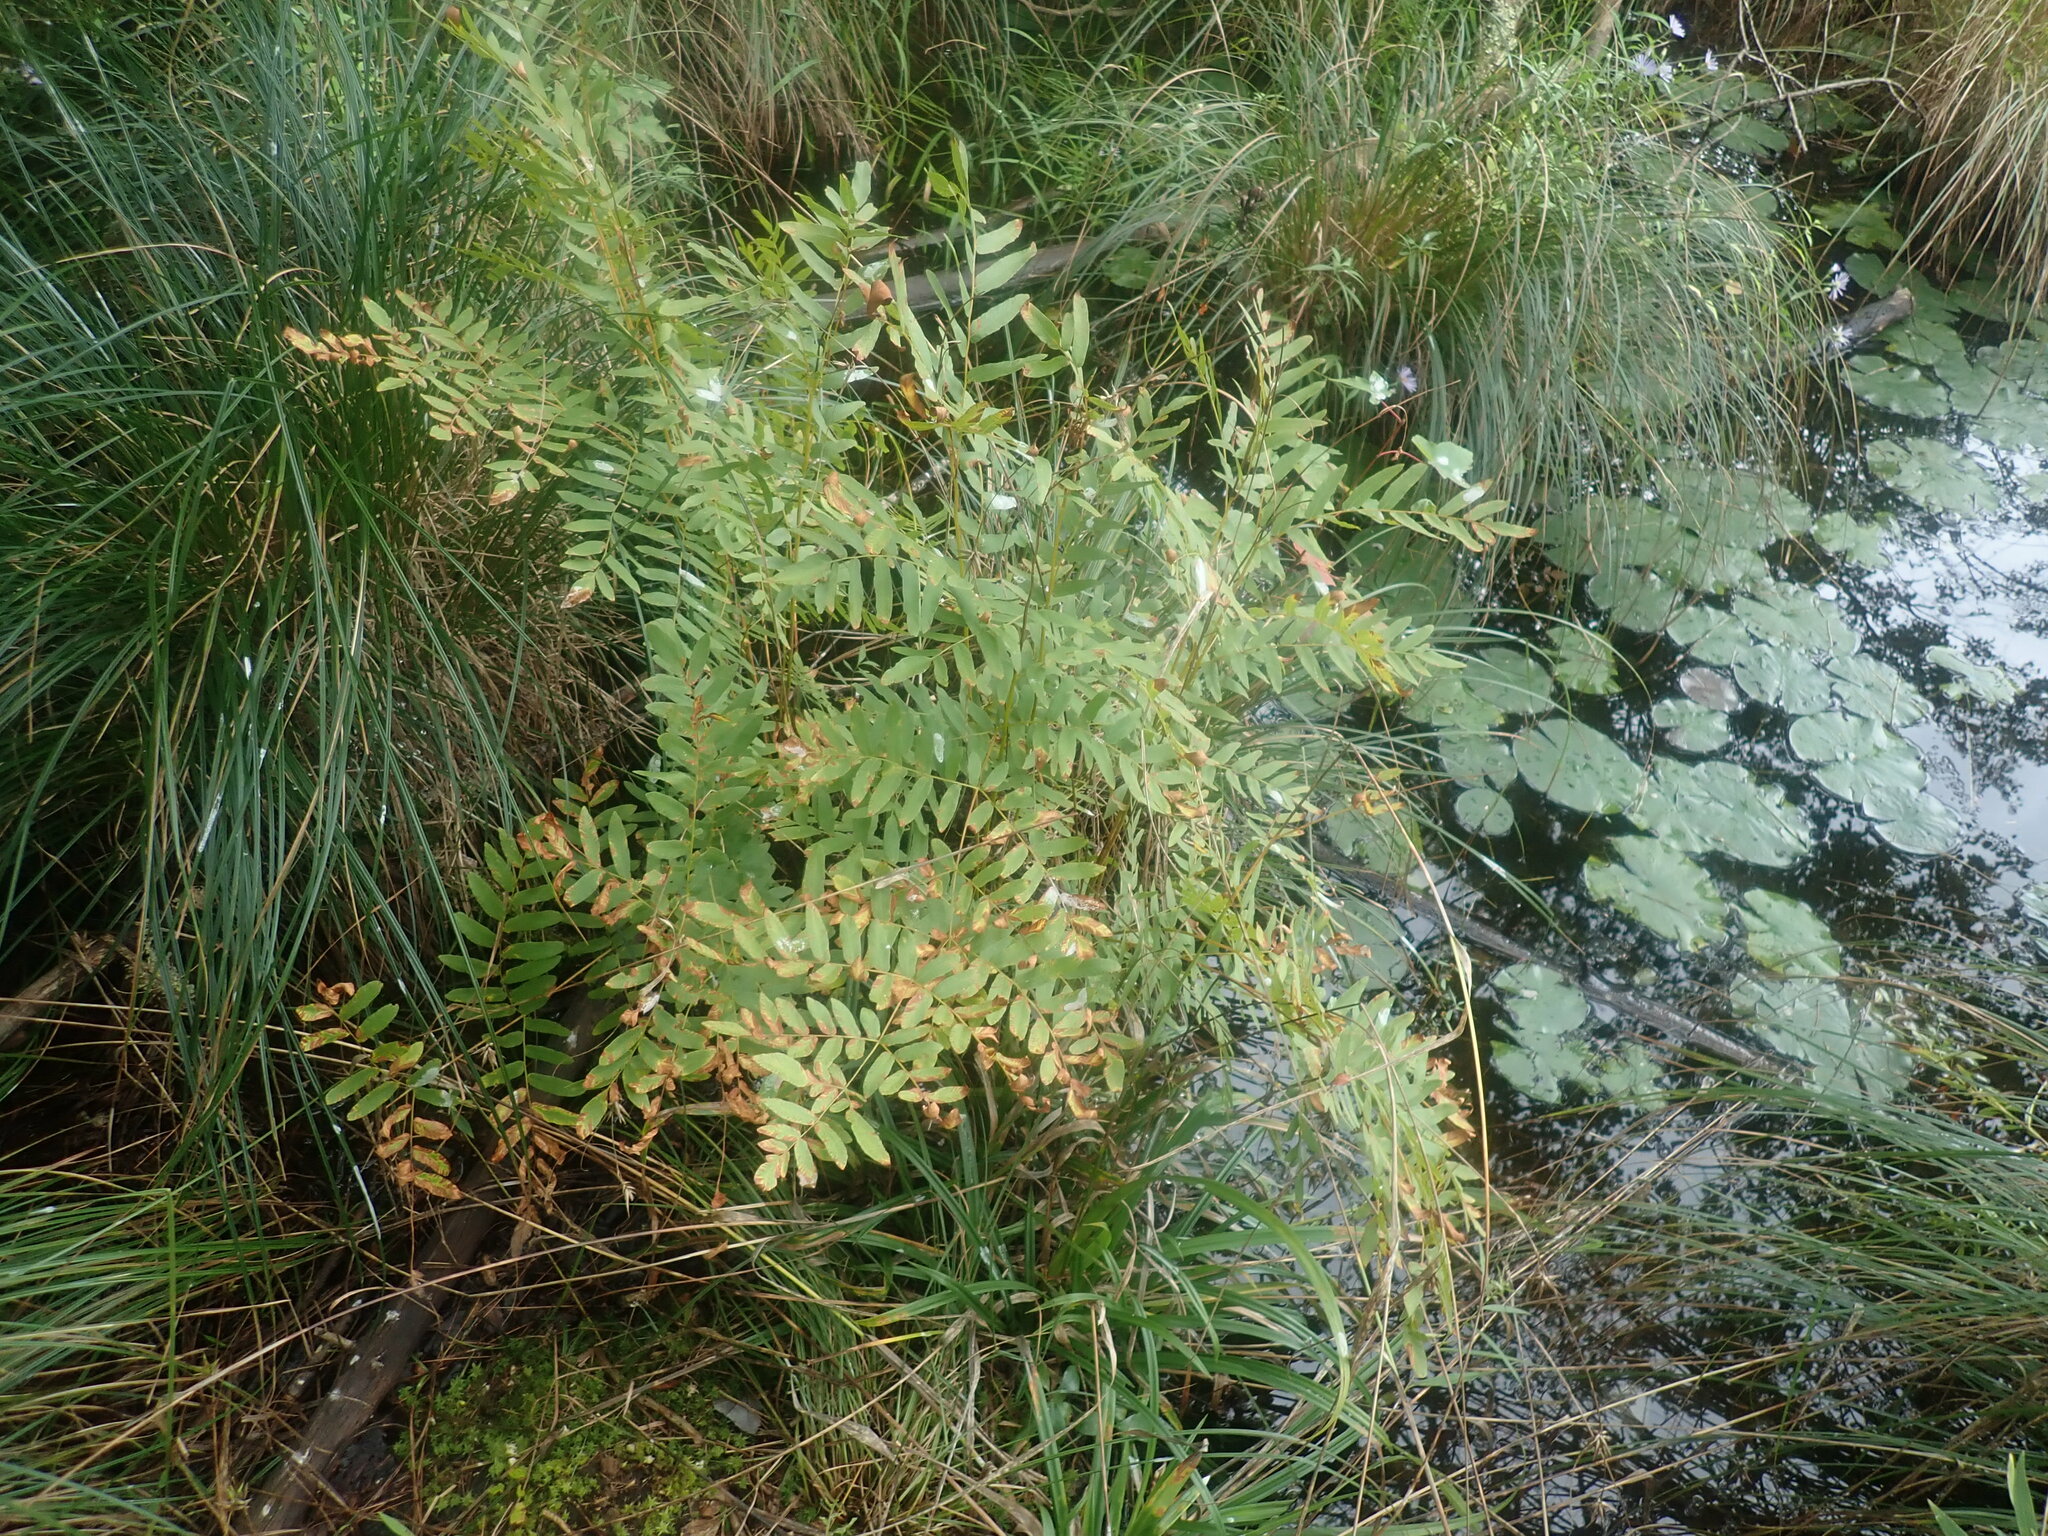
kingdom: Plantae
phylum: Tracheophyta
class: Polypodiopsida
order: Osmundales
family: Osmundaceae
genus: Osmunda
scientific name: Osmunda spectabilis
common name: American royal fern
